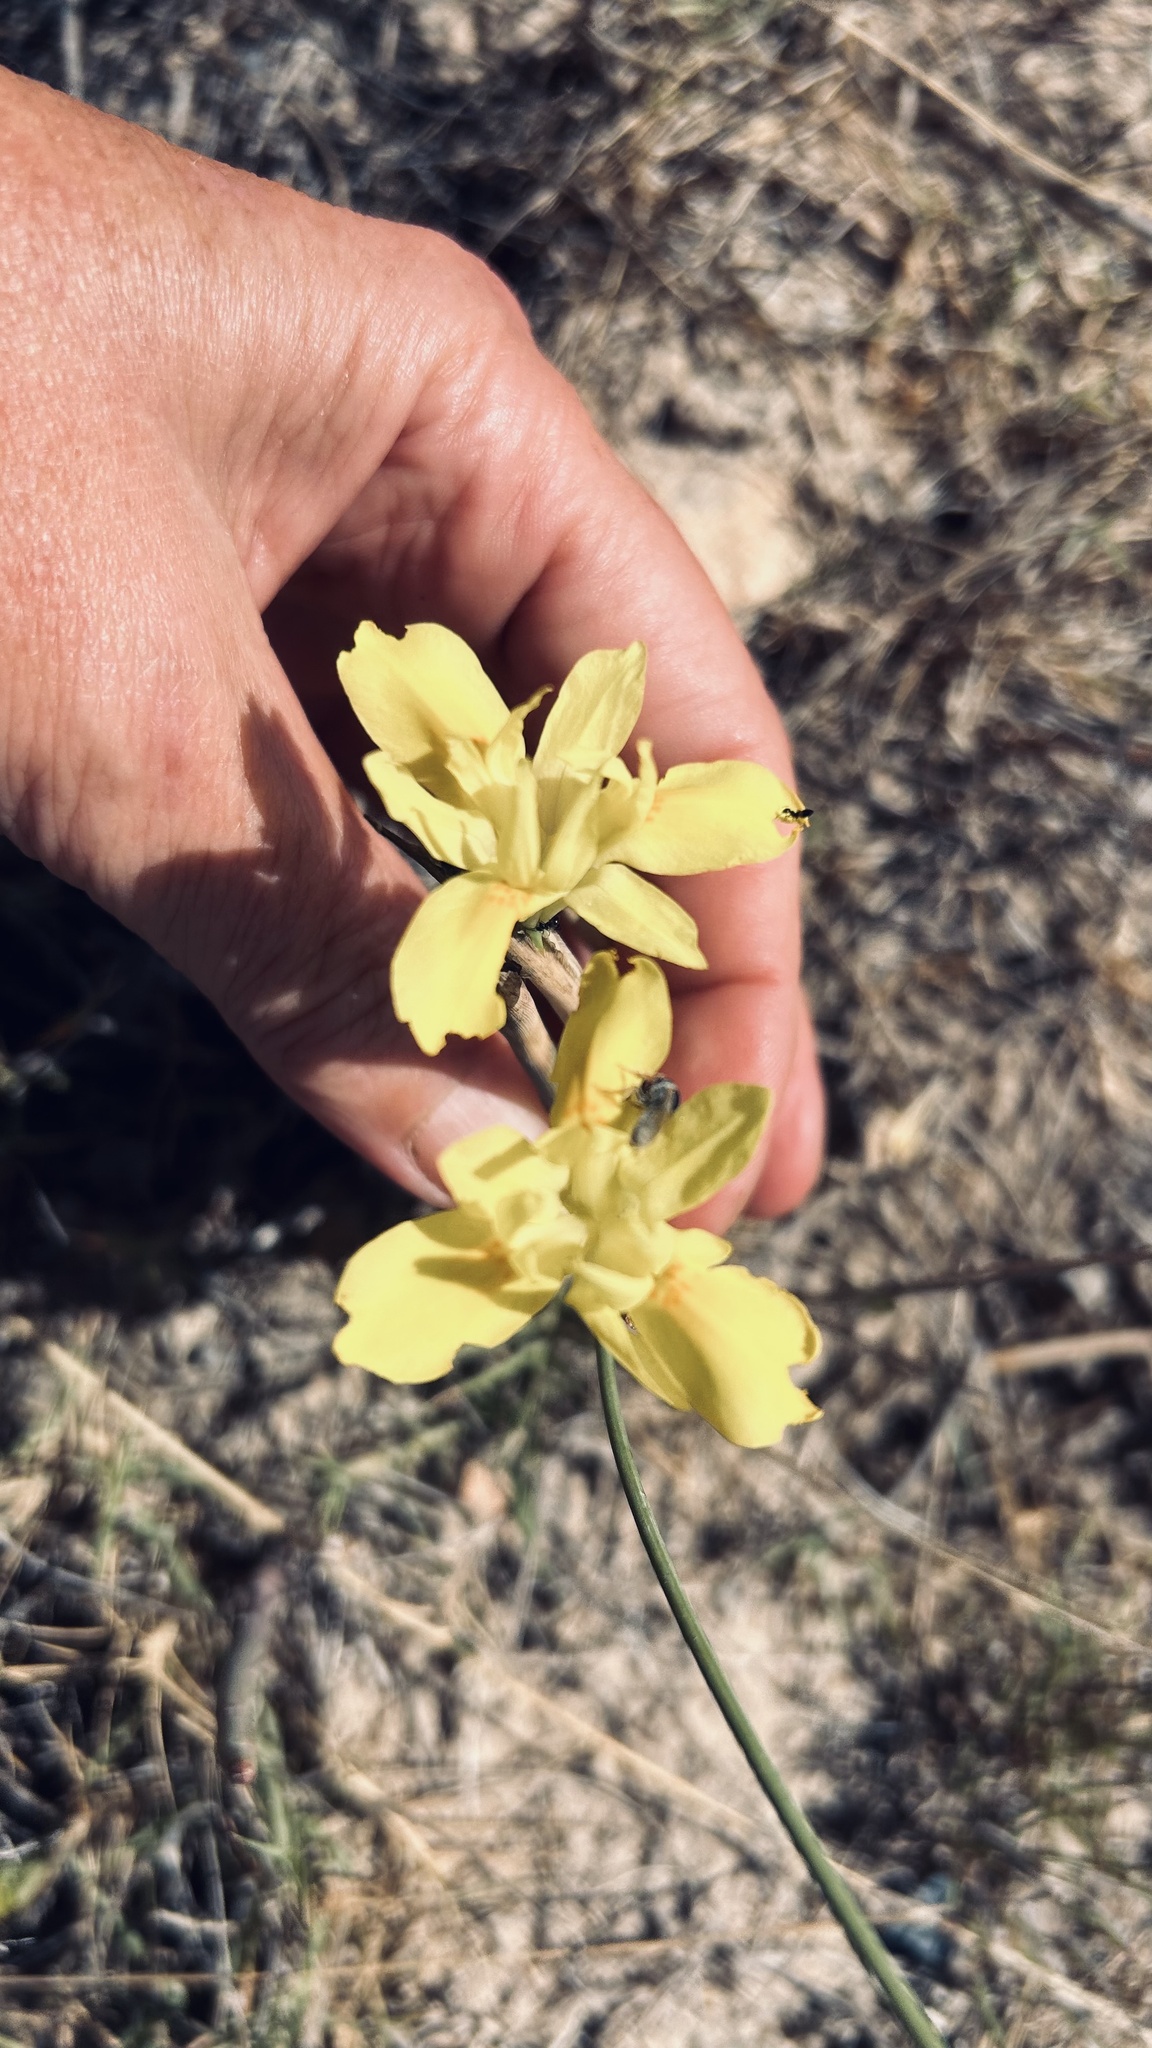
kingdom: Plantae
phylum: Tracheophyta
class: Liliopsida
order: Asparagales
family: Iridaceae
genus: Moraea
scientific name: Moraea fugax
